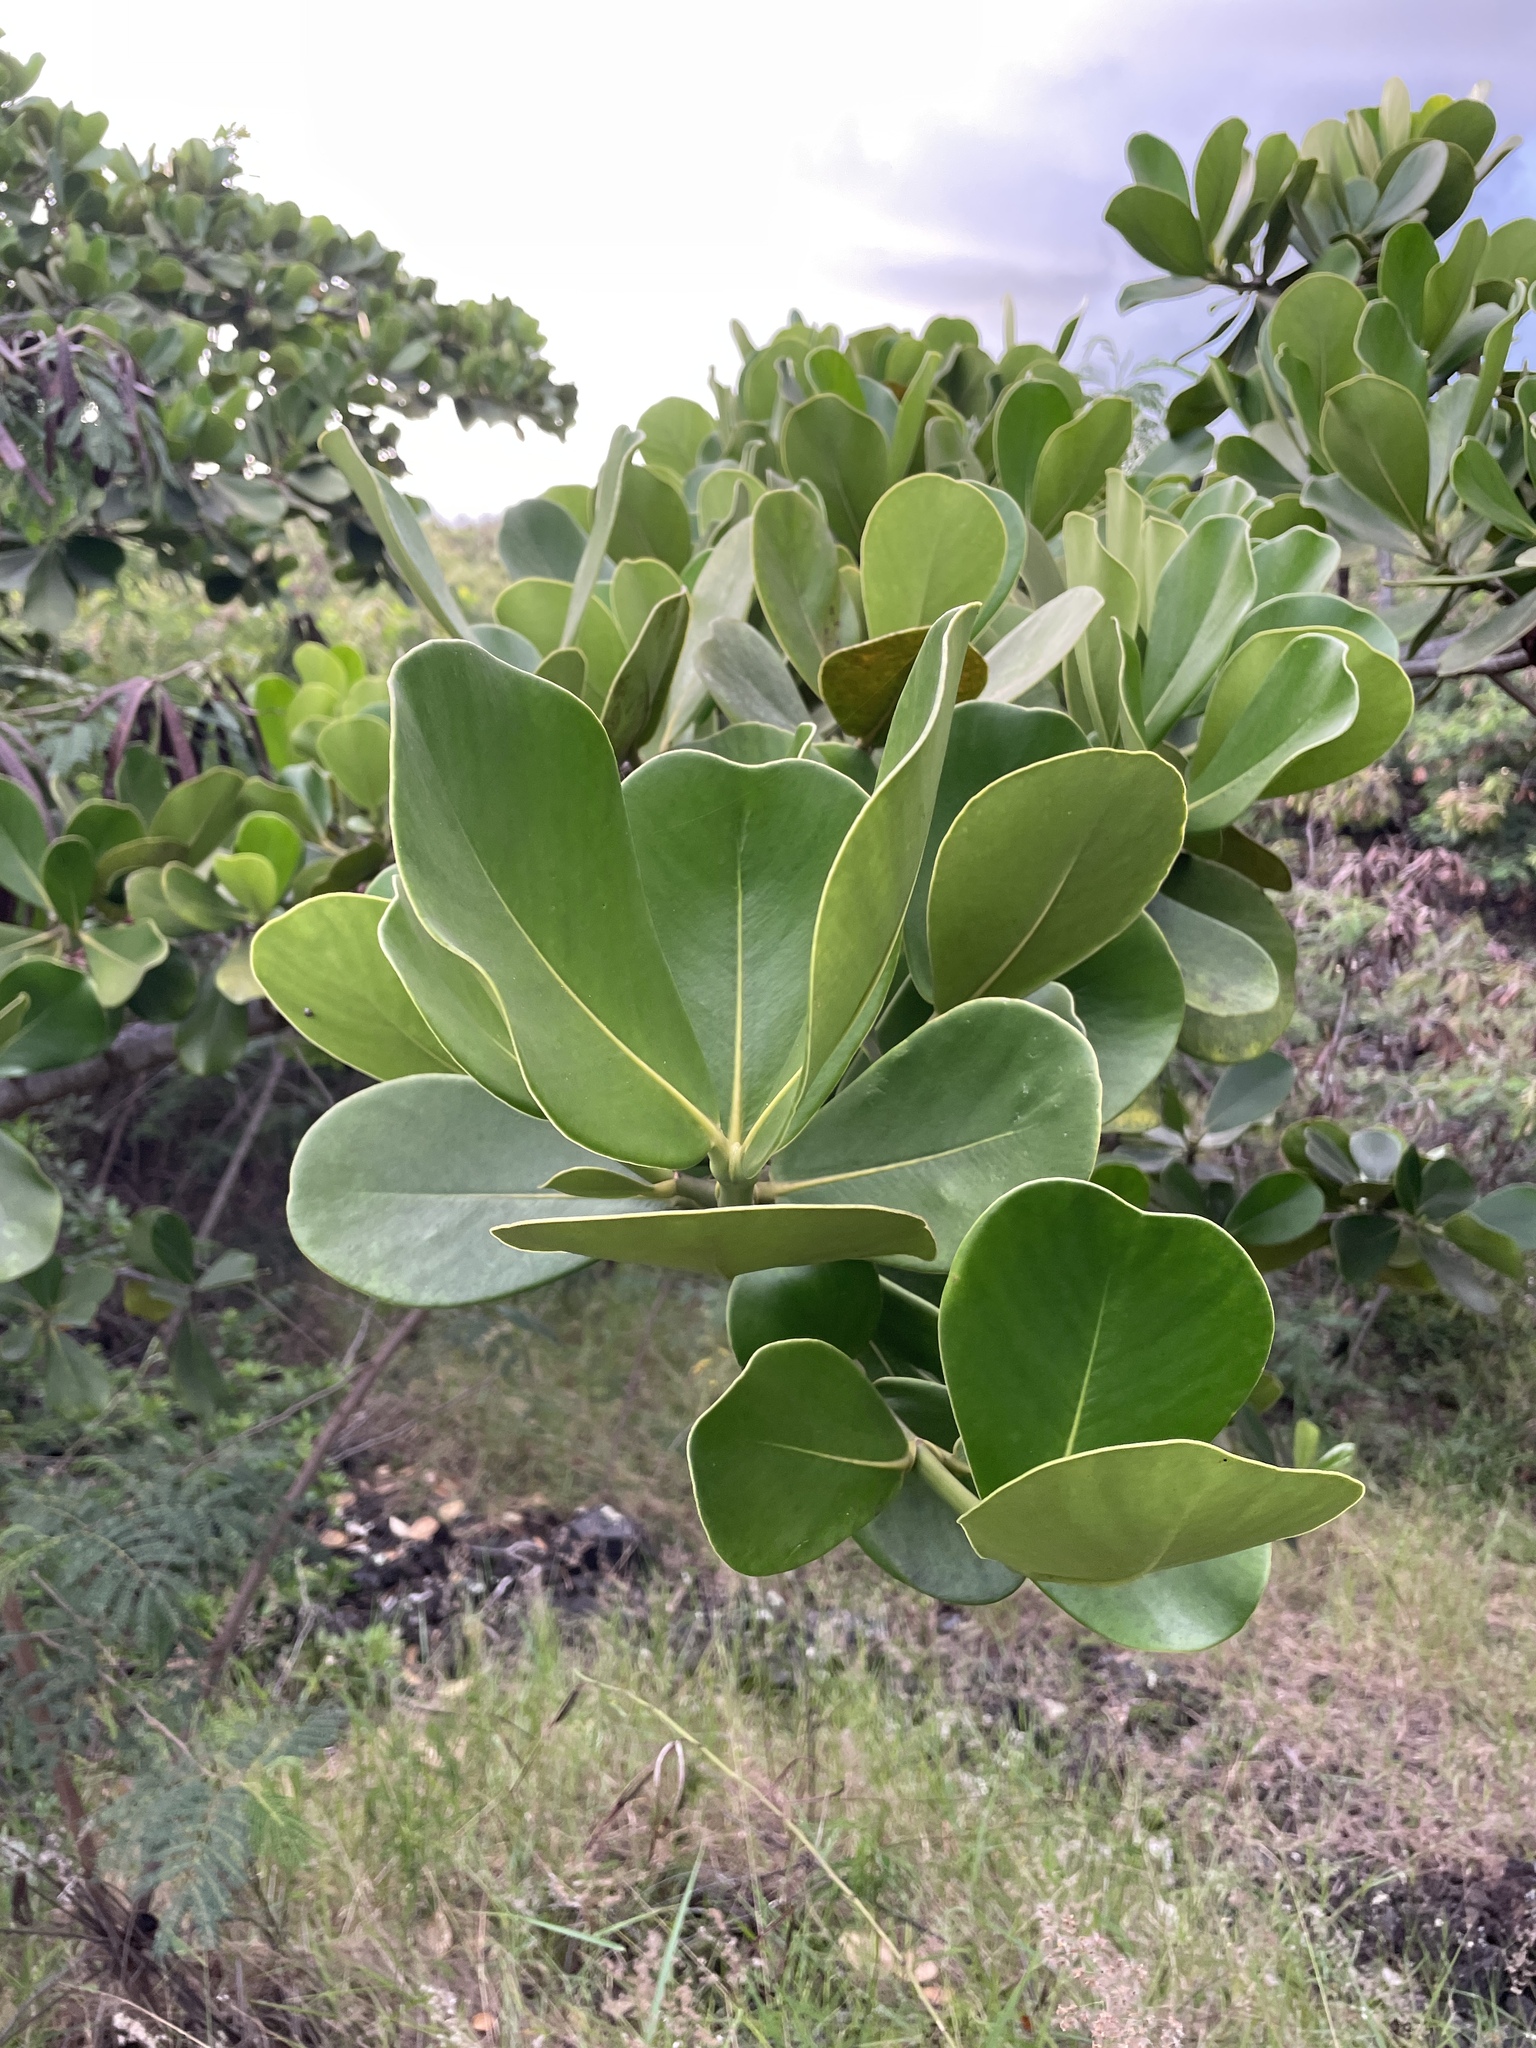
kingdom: Plantae
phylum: Tracheophyta
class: Magnoliopsida
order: Malpighiales
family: Clusiaceae
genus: Clusia
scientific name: Clusia rosea
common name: Scotch attorney
